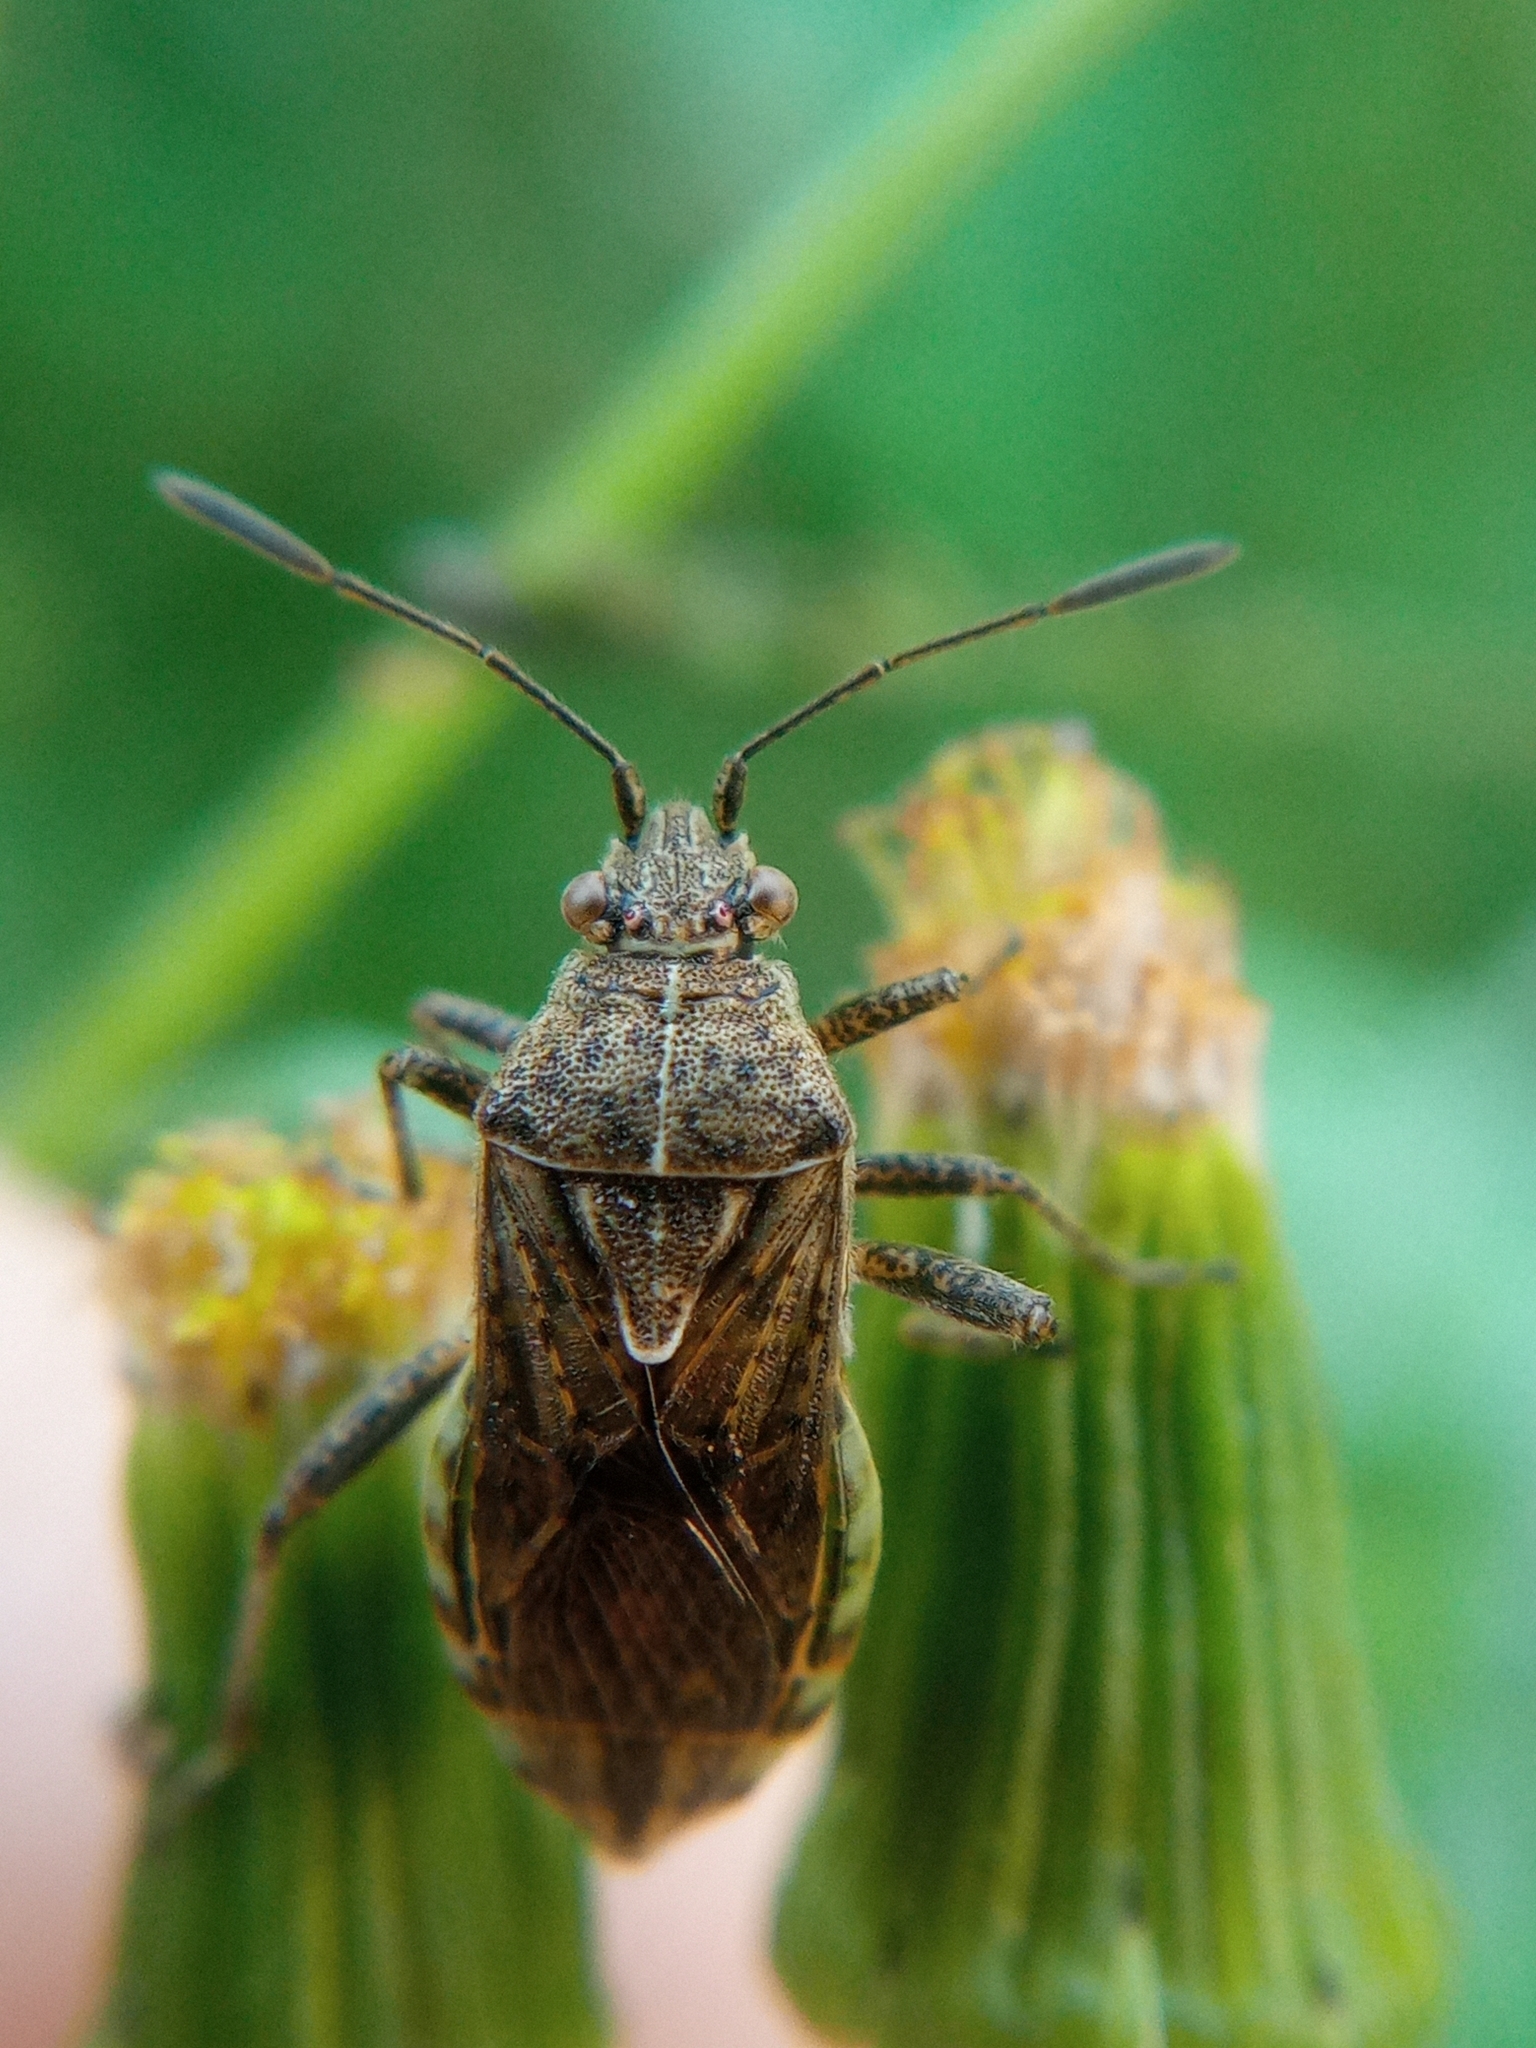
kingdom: Animalia
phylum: Arthropoda
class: Insecta
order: Hemiptera
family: Rhopalidae
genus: Stictopleurus
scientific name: Stictopleurus punctatonervosus
